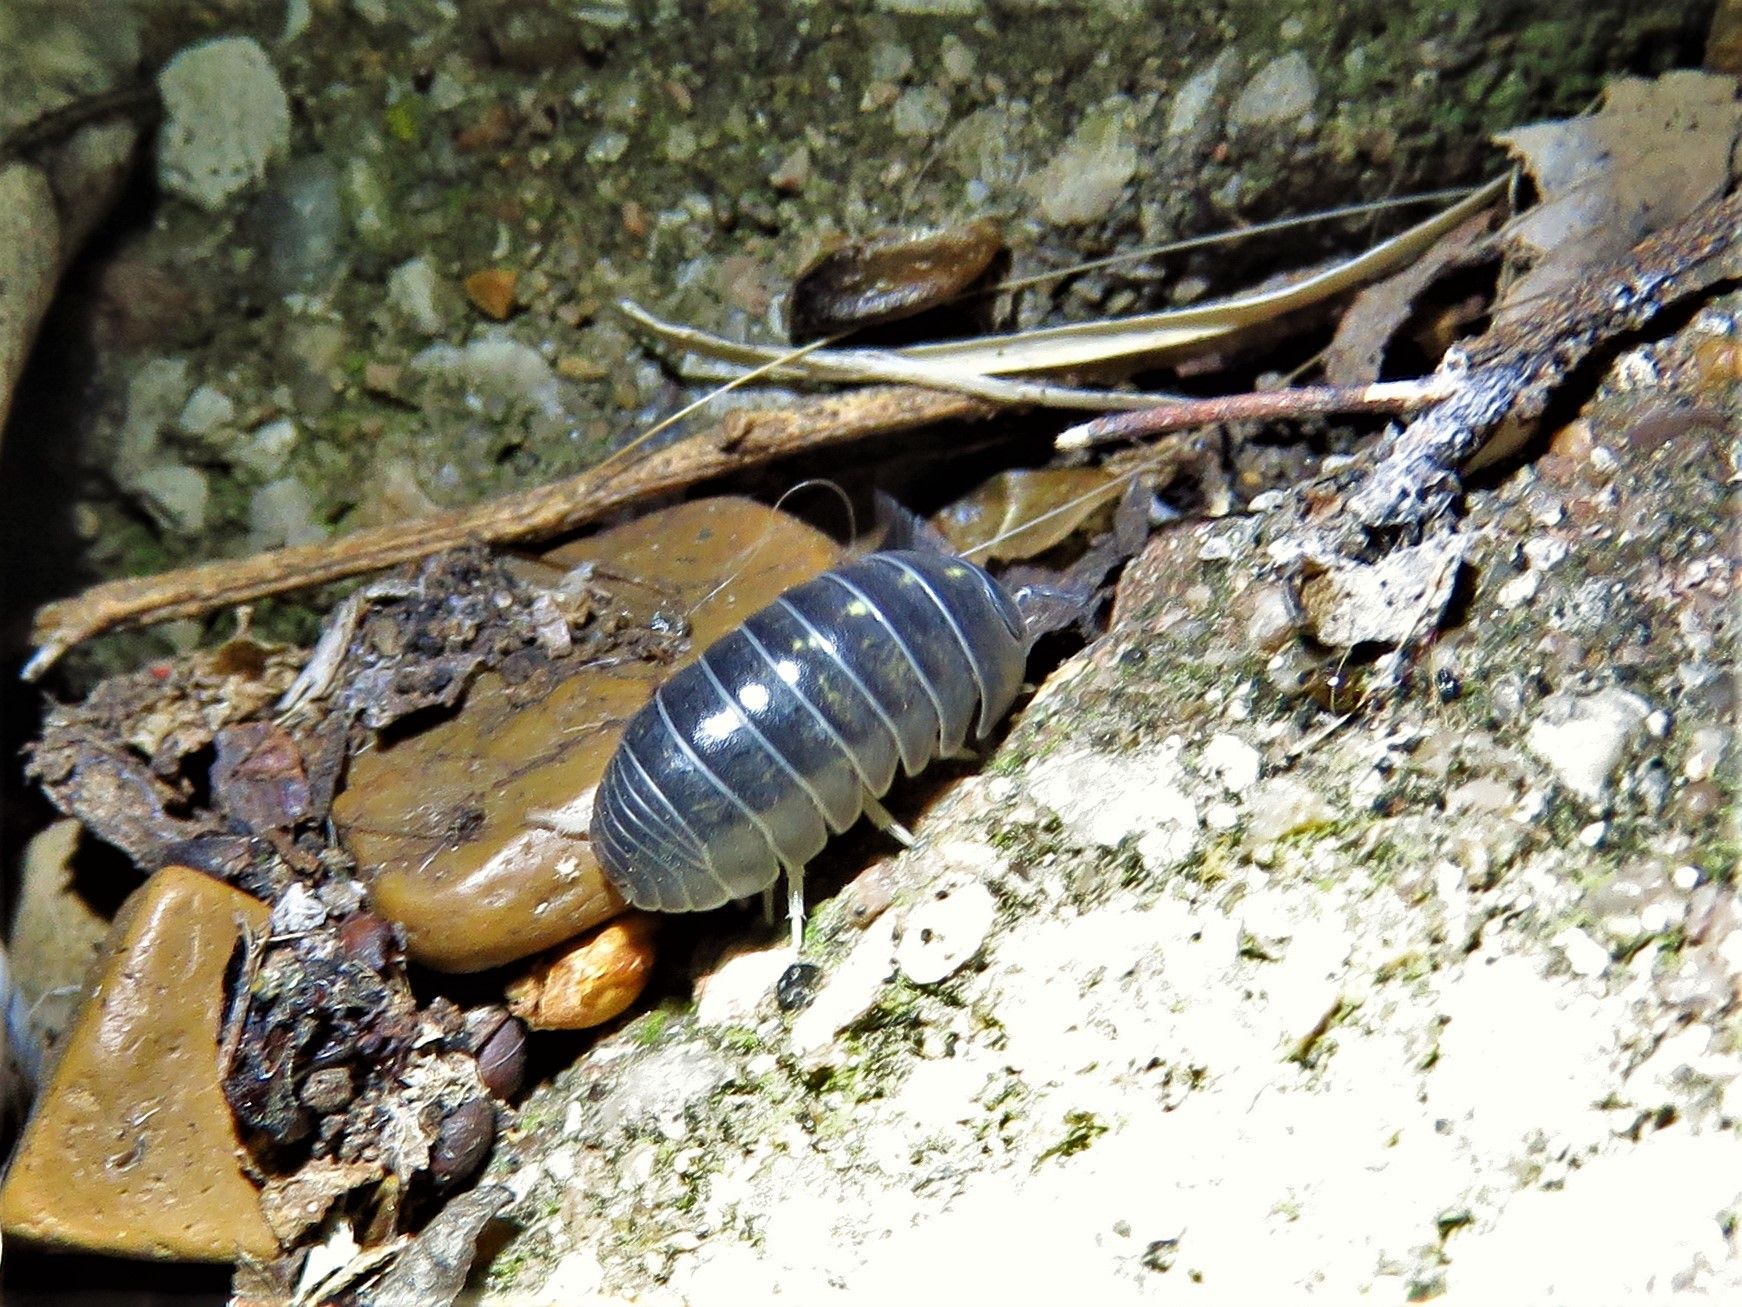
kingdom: Animalia
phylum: Arthropoda
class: Malacostraca
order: Isopoda
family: Armadillidiidae
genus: Armadillidium
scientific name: Armadillidium vulgare
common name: Common pill woodlouse
